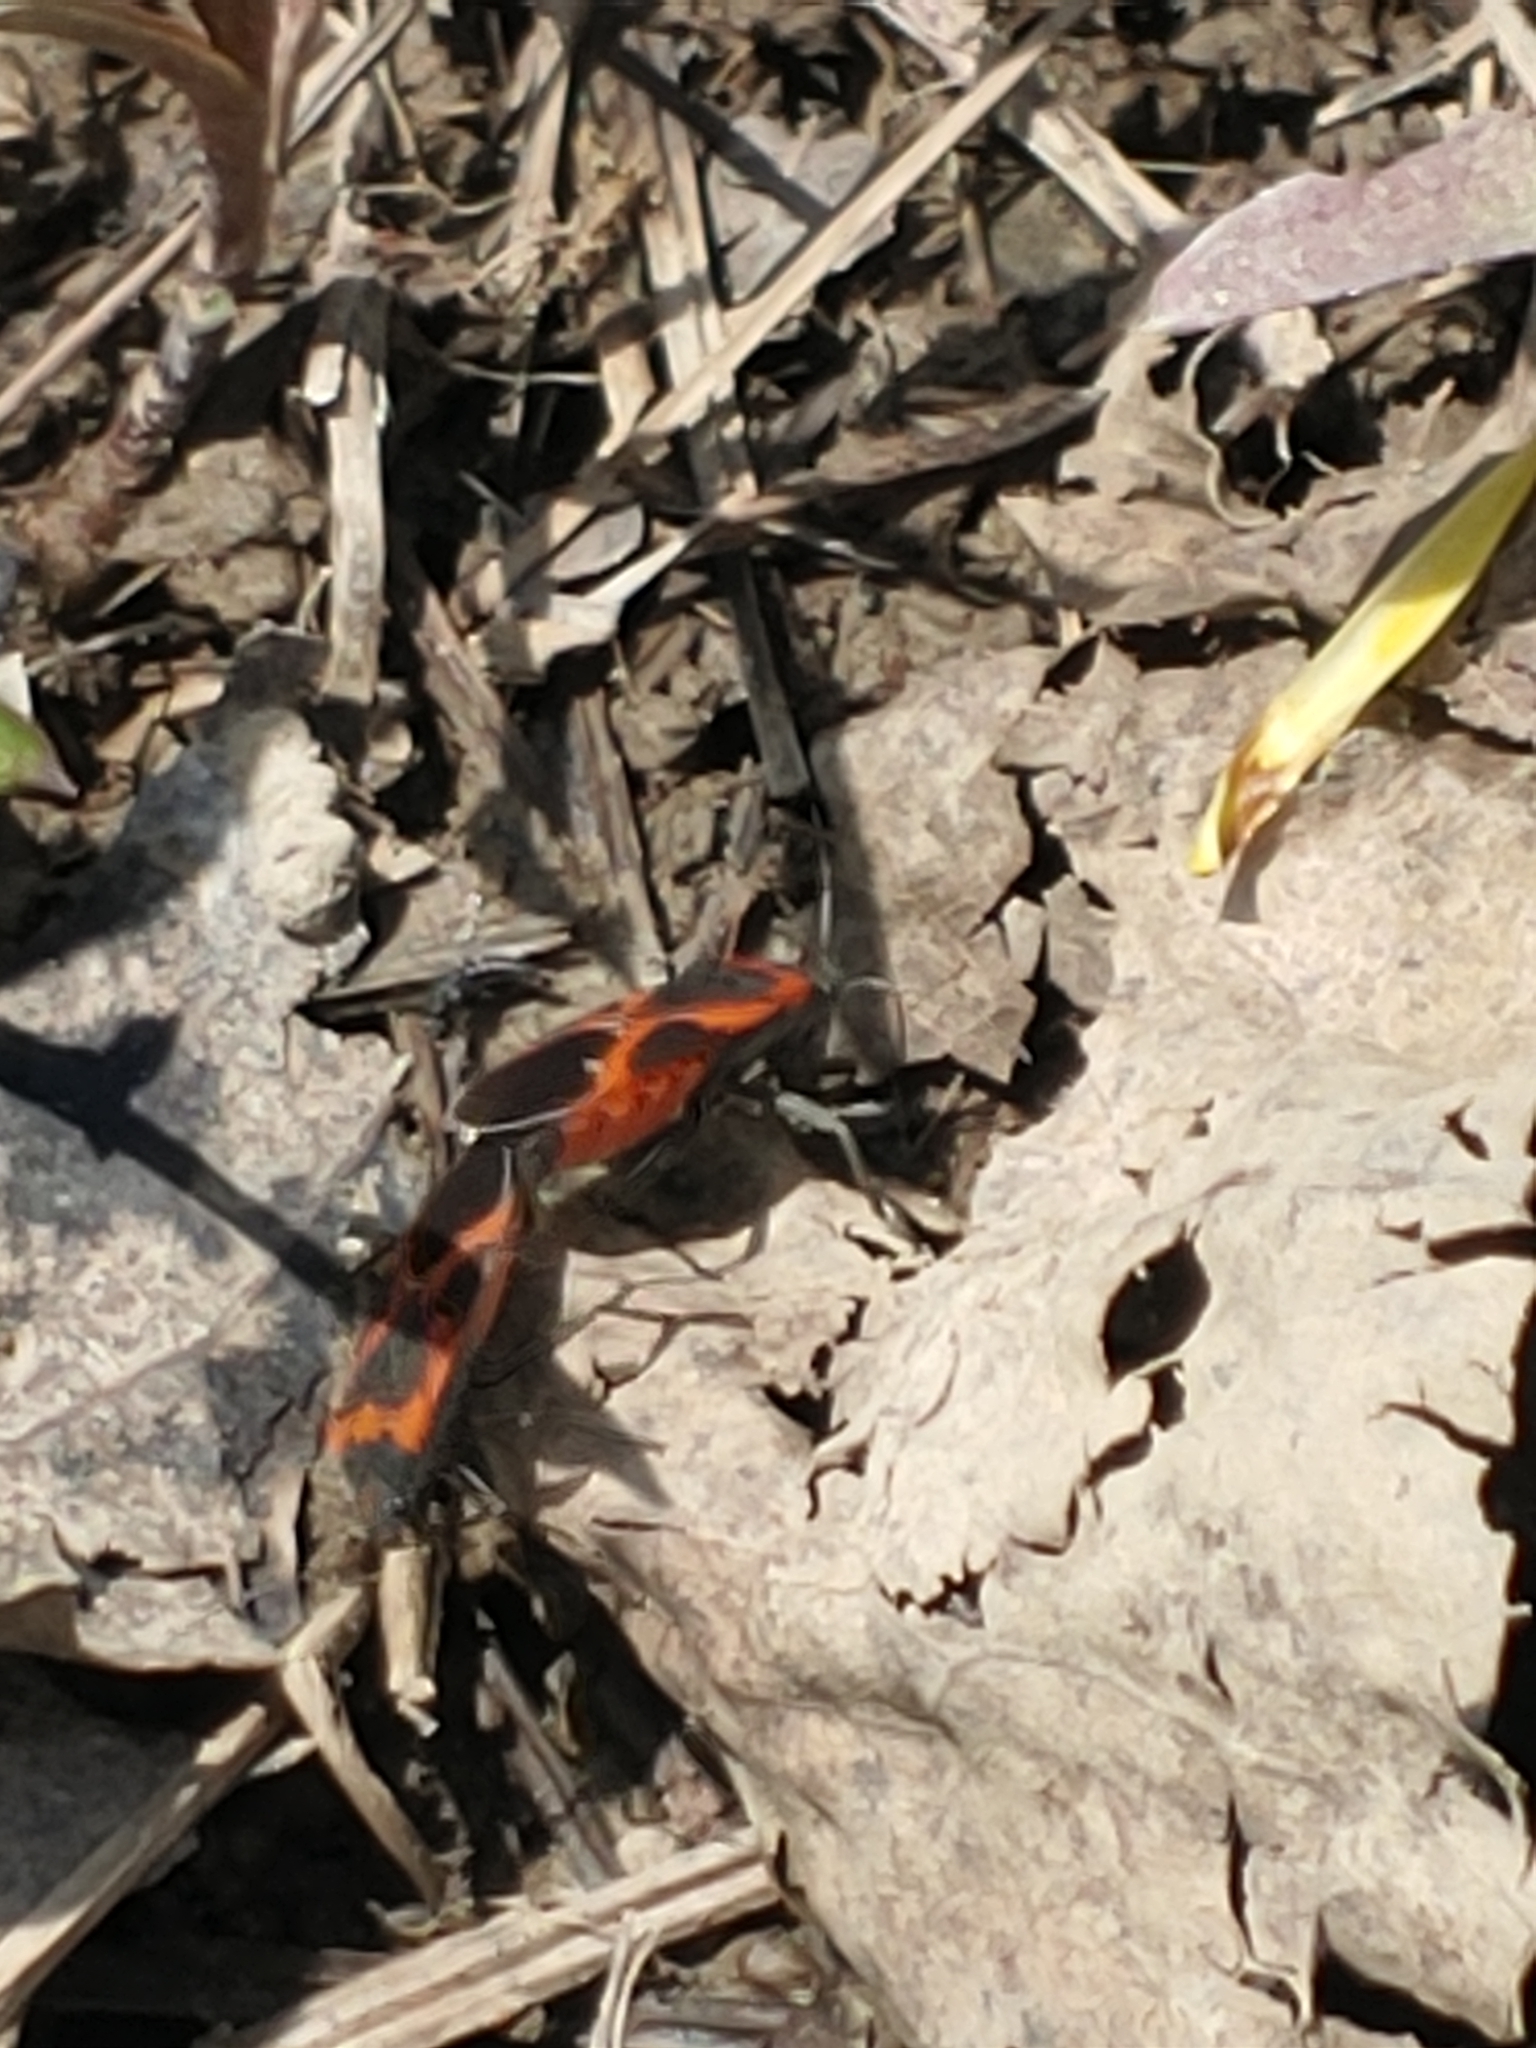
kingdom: Animalia
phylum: Arthropoda
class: Insecta
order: Hemiptera
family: Lygaeidae
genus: Lygaeus
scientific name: Lygaeus kalmii
